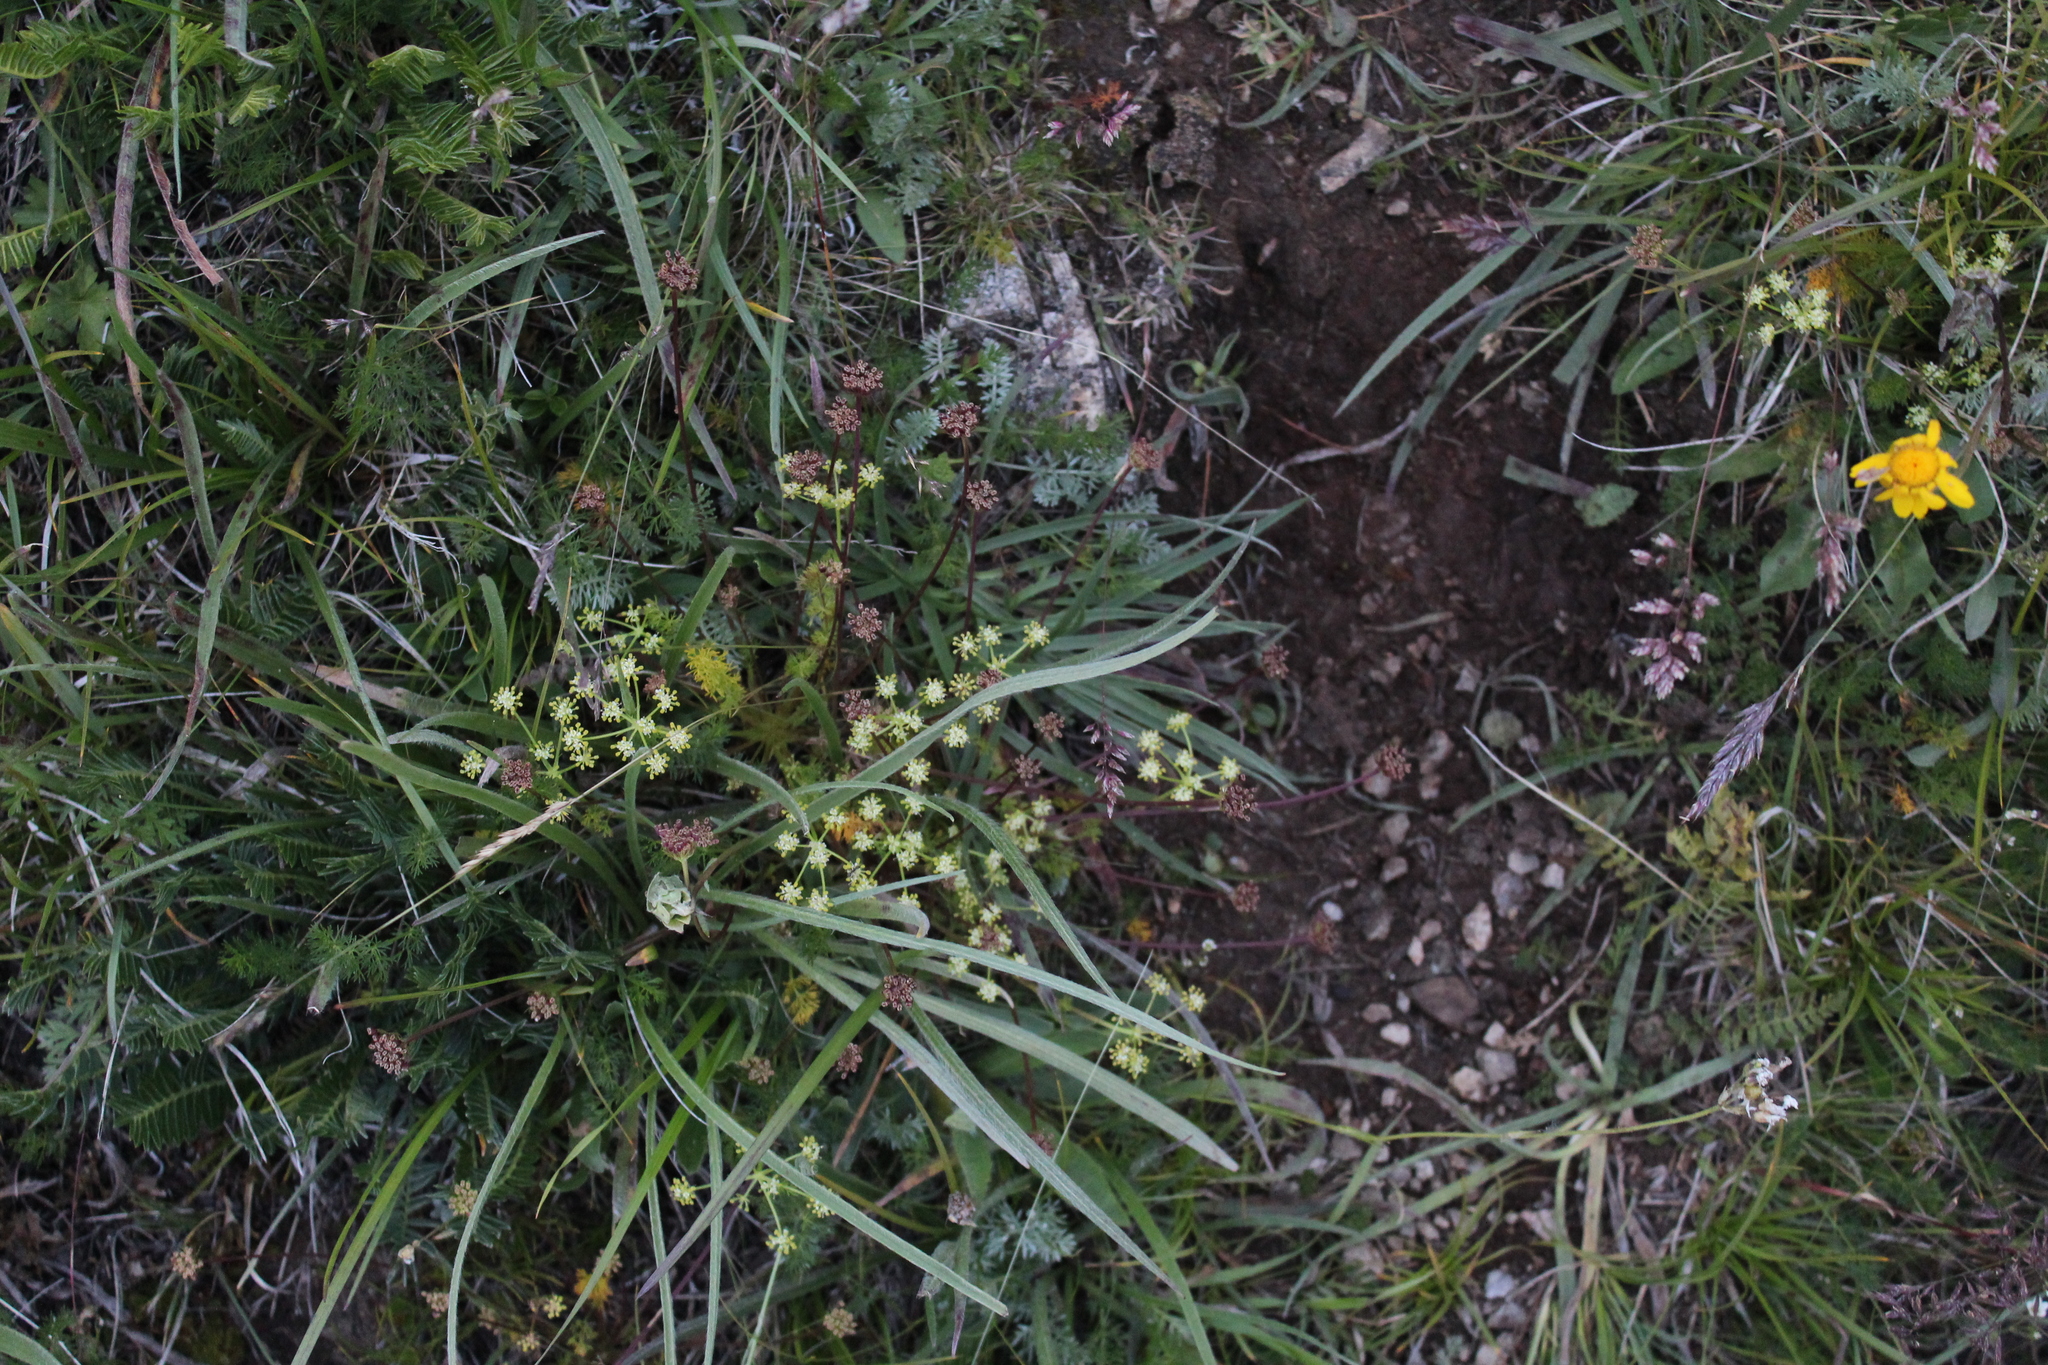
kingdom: Plantae
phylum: Tracheophyta
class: Magnoliopsida
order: Apiales
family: Apiaceae
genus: Chamaesciadium
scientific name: Chamaesciadium acaule
